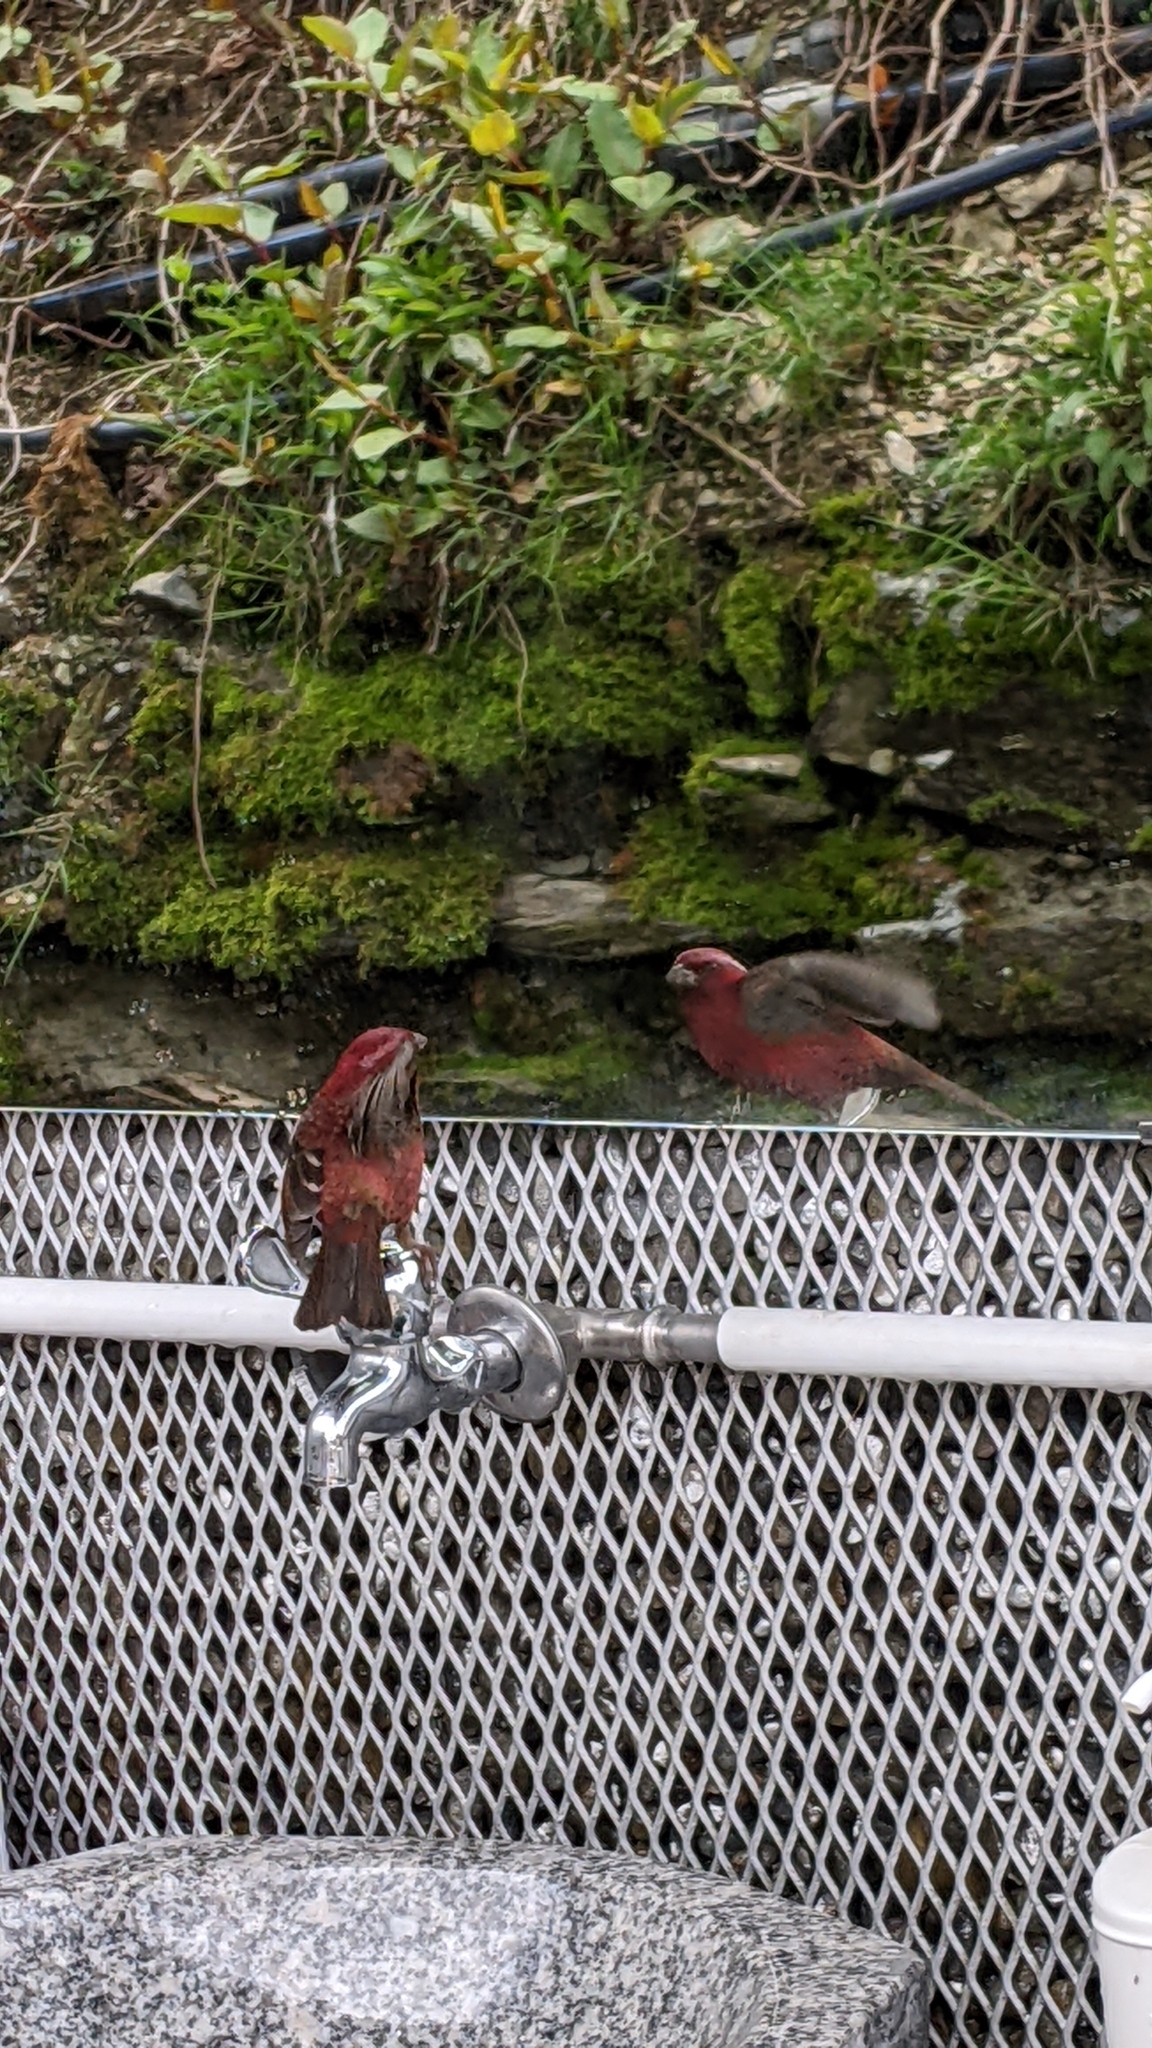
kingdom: Animalia
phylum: Chordata
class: Aves
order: Passeriformes
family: Fringillidae
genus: Carpodacus
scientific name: Carpodacus formosanus
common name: Taiwan rosefinch
